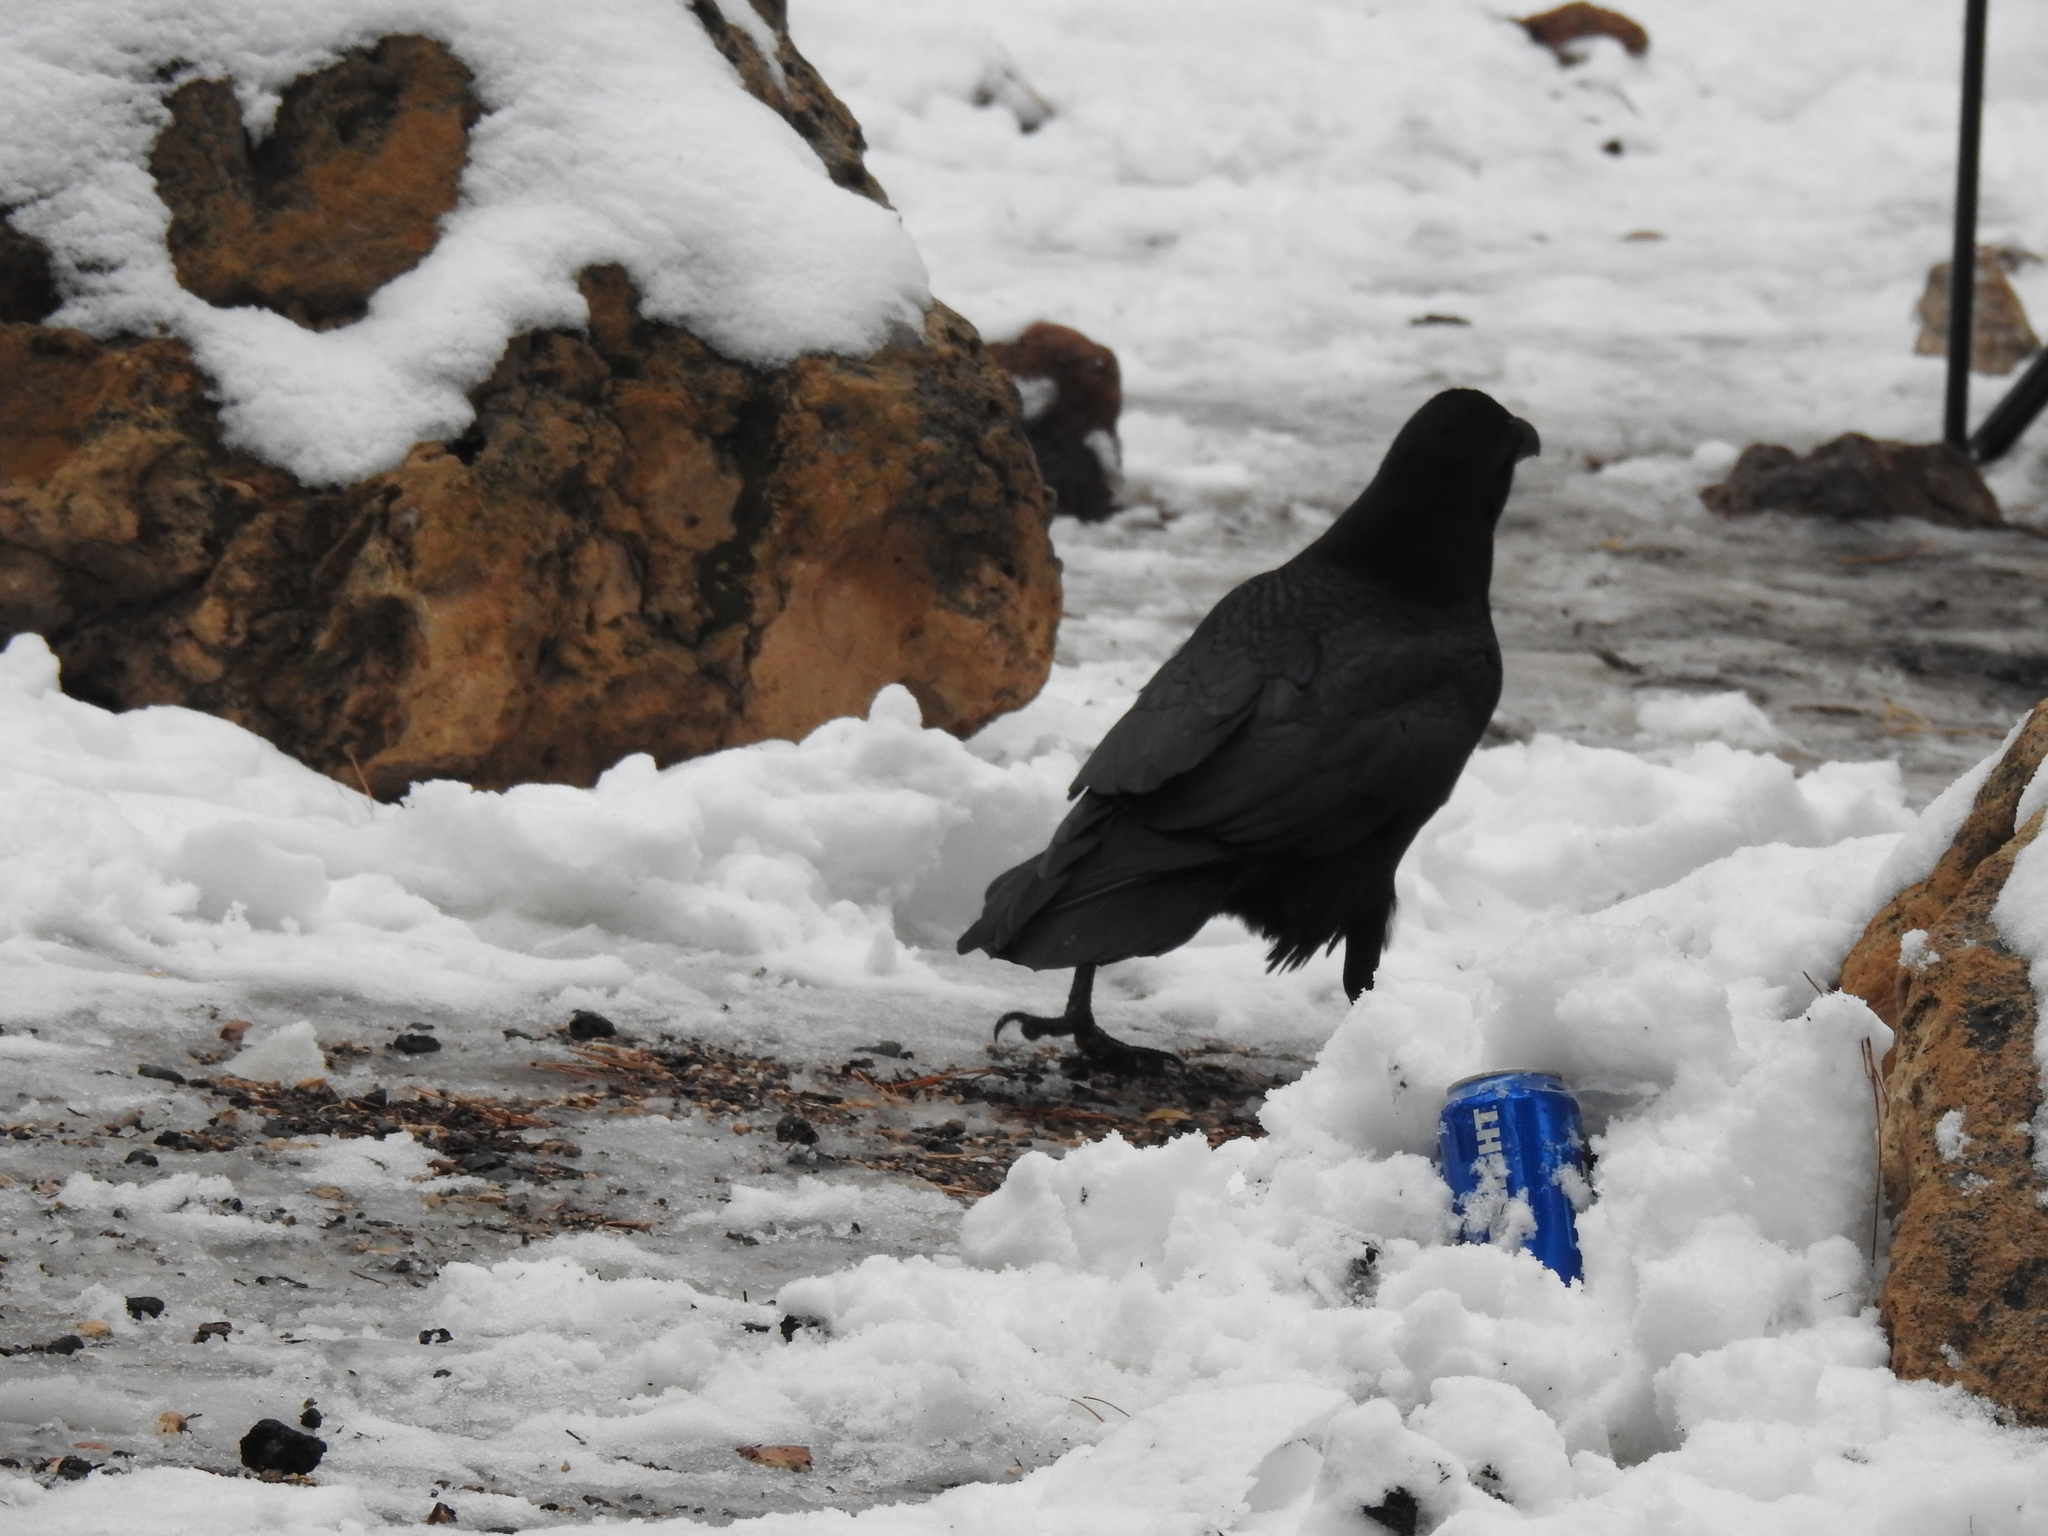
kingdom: Animalia
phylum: Chordata
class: Aves
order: Passeriformes
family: Corvidae
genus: Corvus
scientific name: Corvus corax
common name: Common raven
